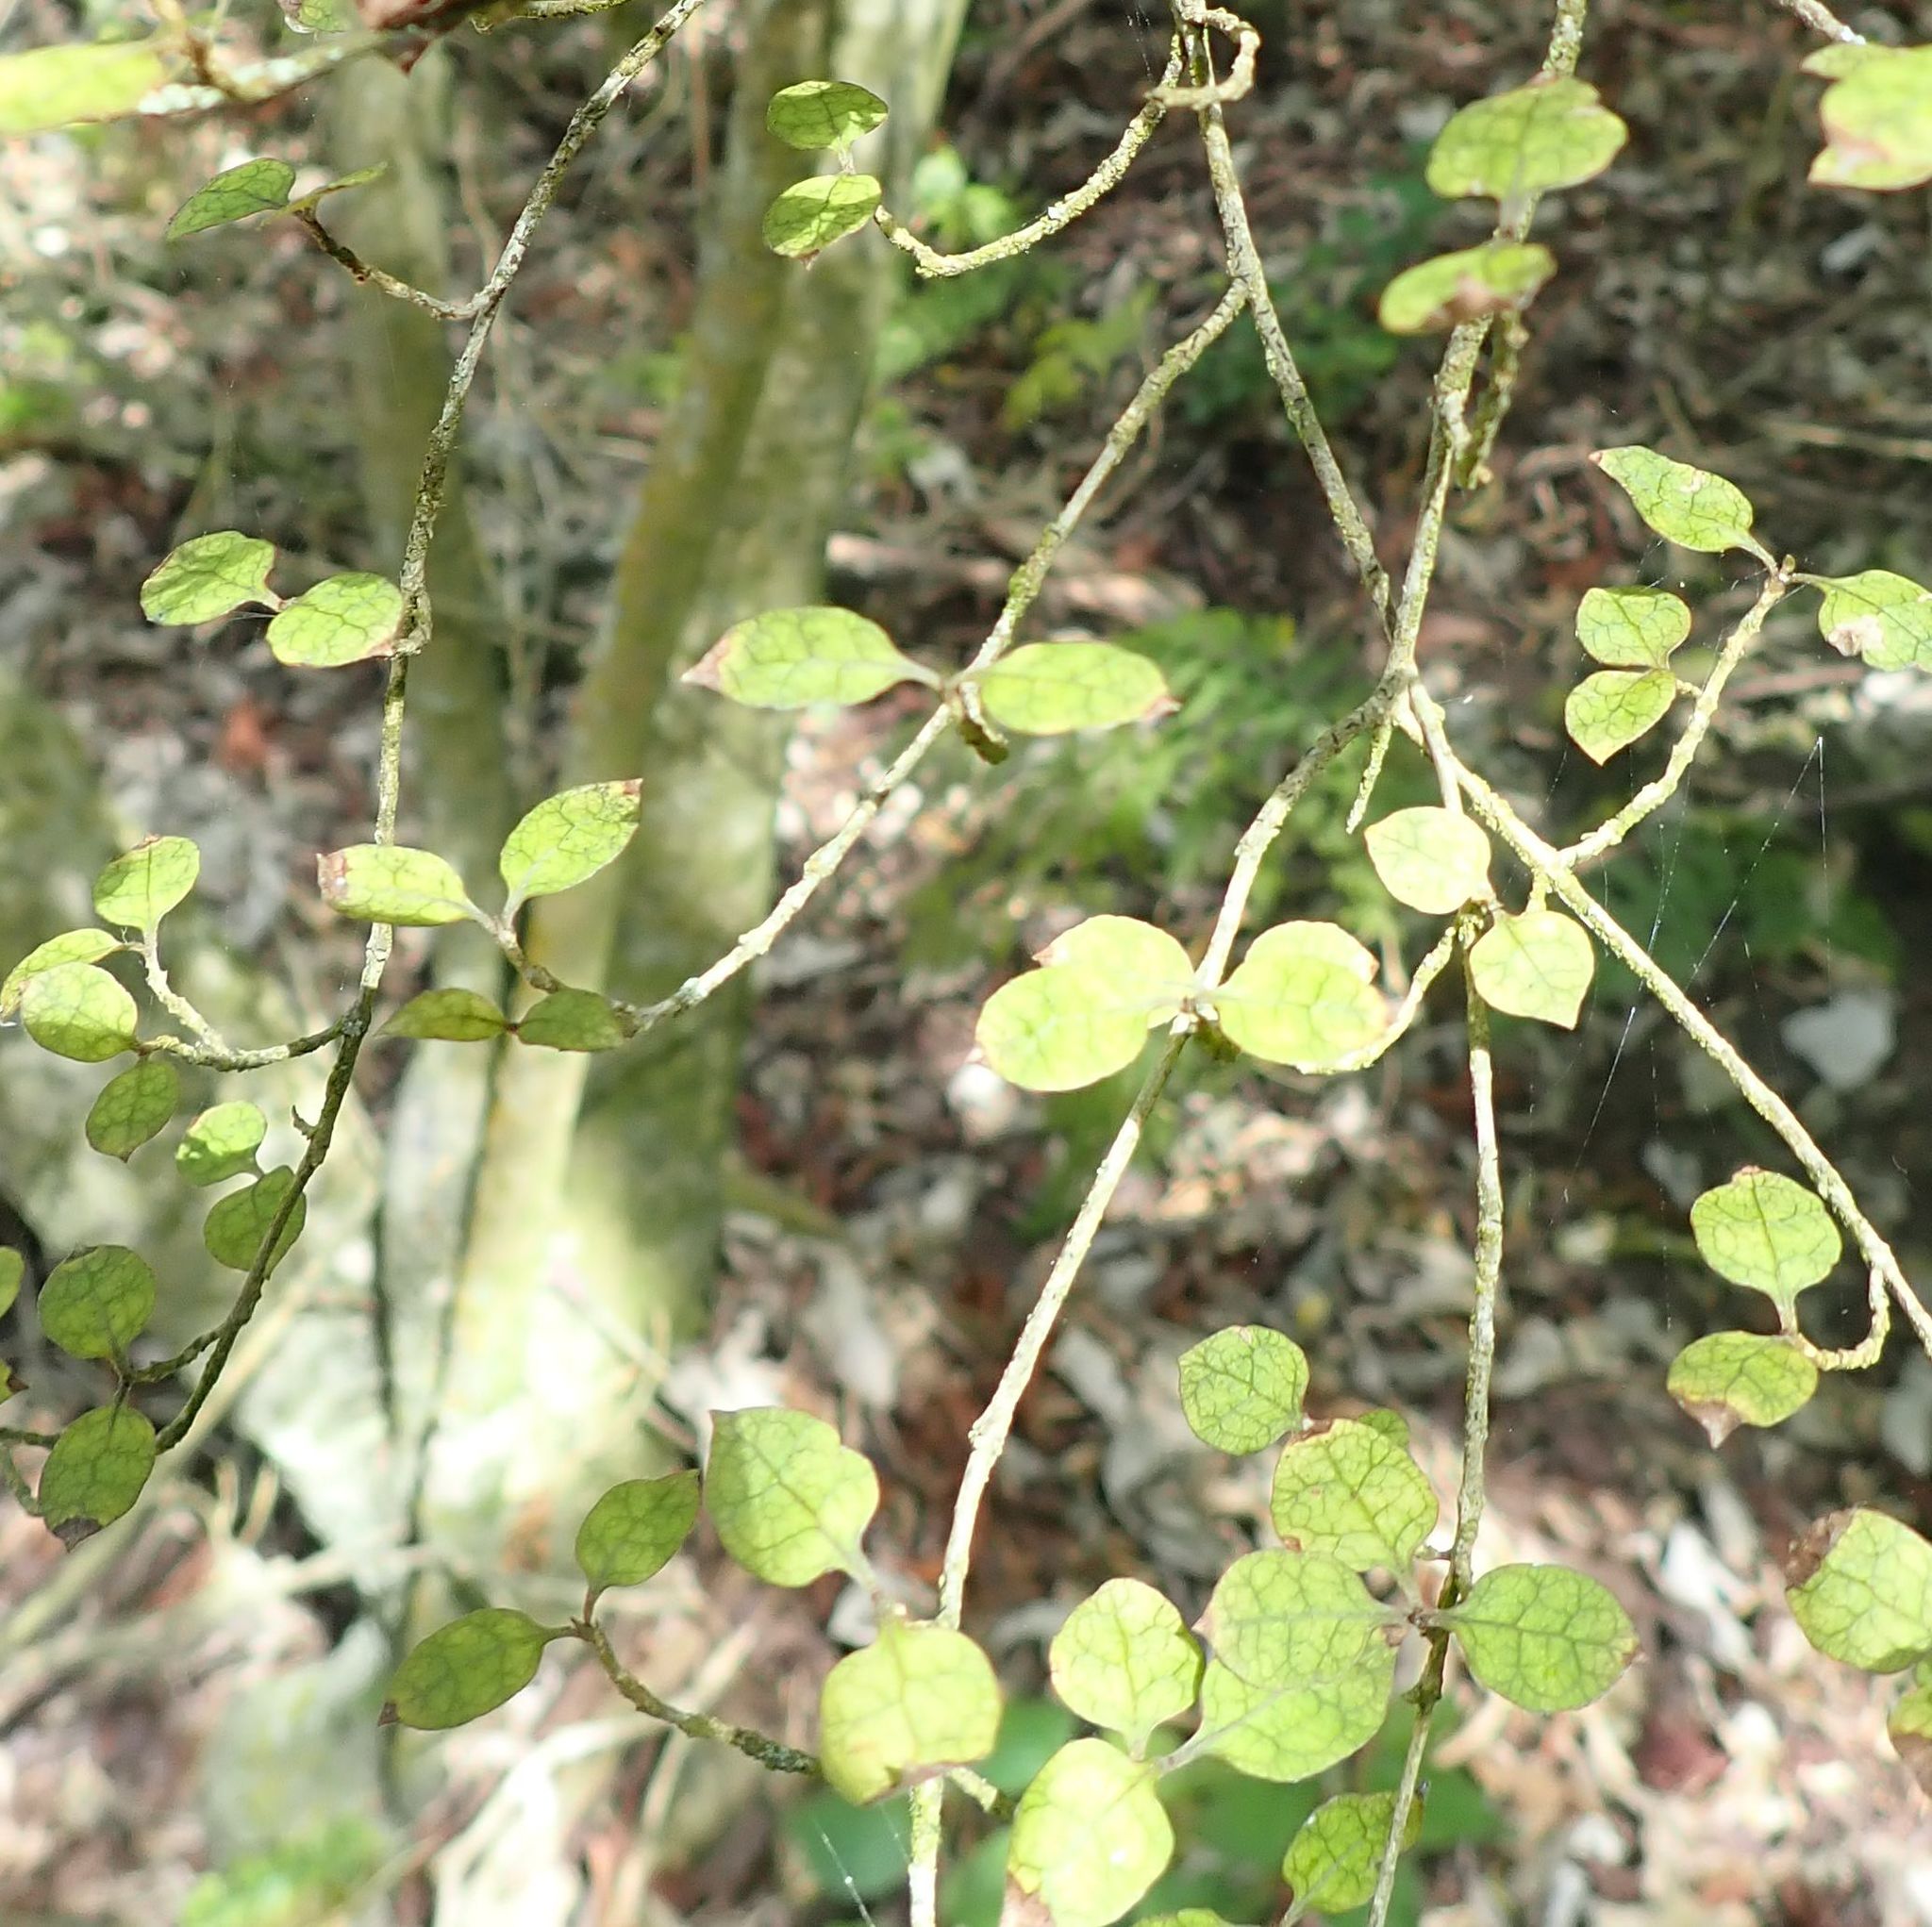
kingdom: Plantae
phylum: Tracheophyta
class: Magnoliopsida
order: Gentianales
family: Rubiaceae
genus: Coprosma
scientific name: Coprosma areolata
